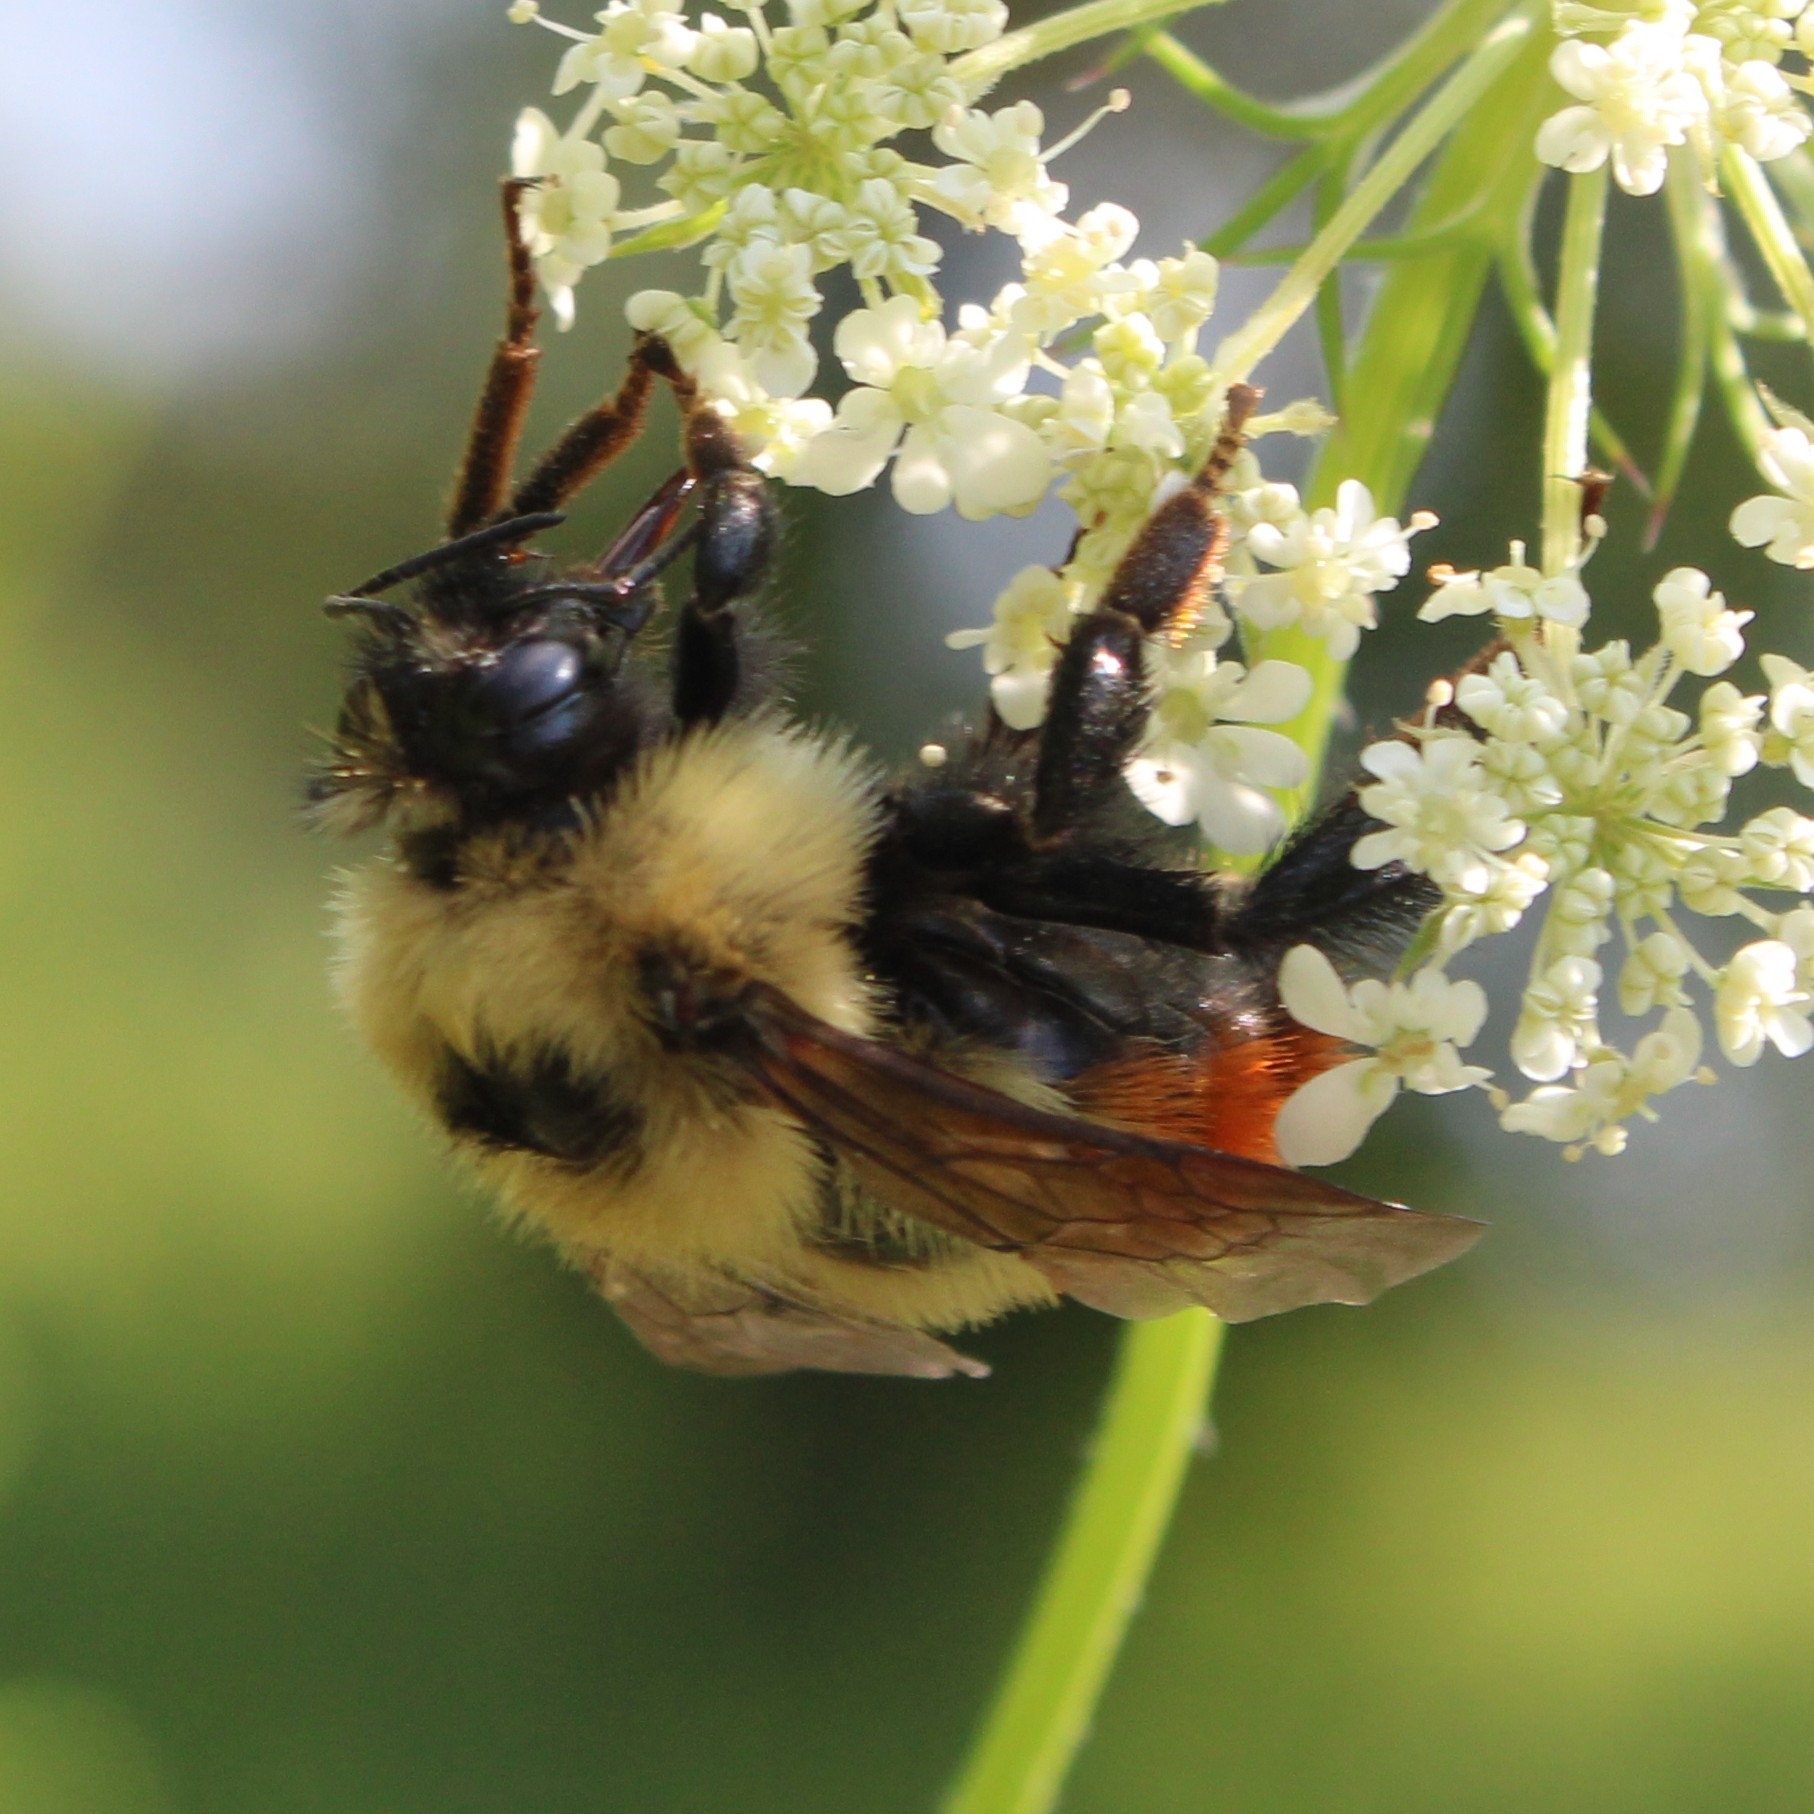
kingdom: Animalia
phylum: Arthropoda
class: Insecta
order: Hymenoptera
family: Apidae
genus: Bombus
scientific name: Bombus rufocinctus
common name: Red-belted bumble bee
